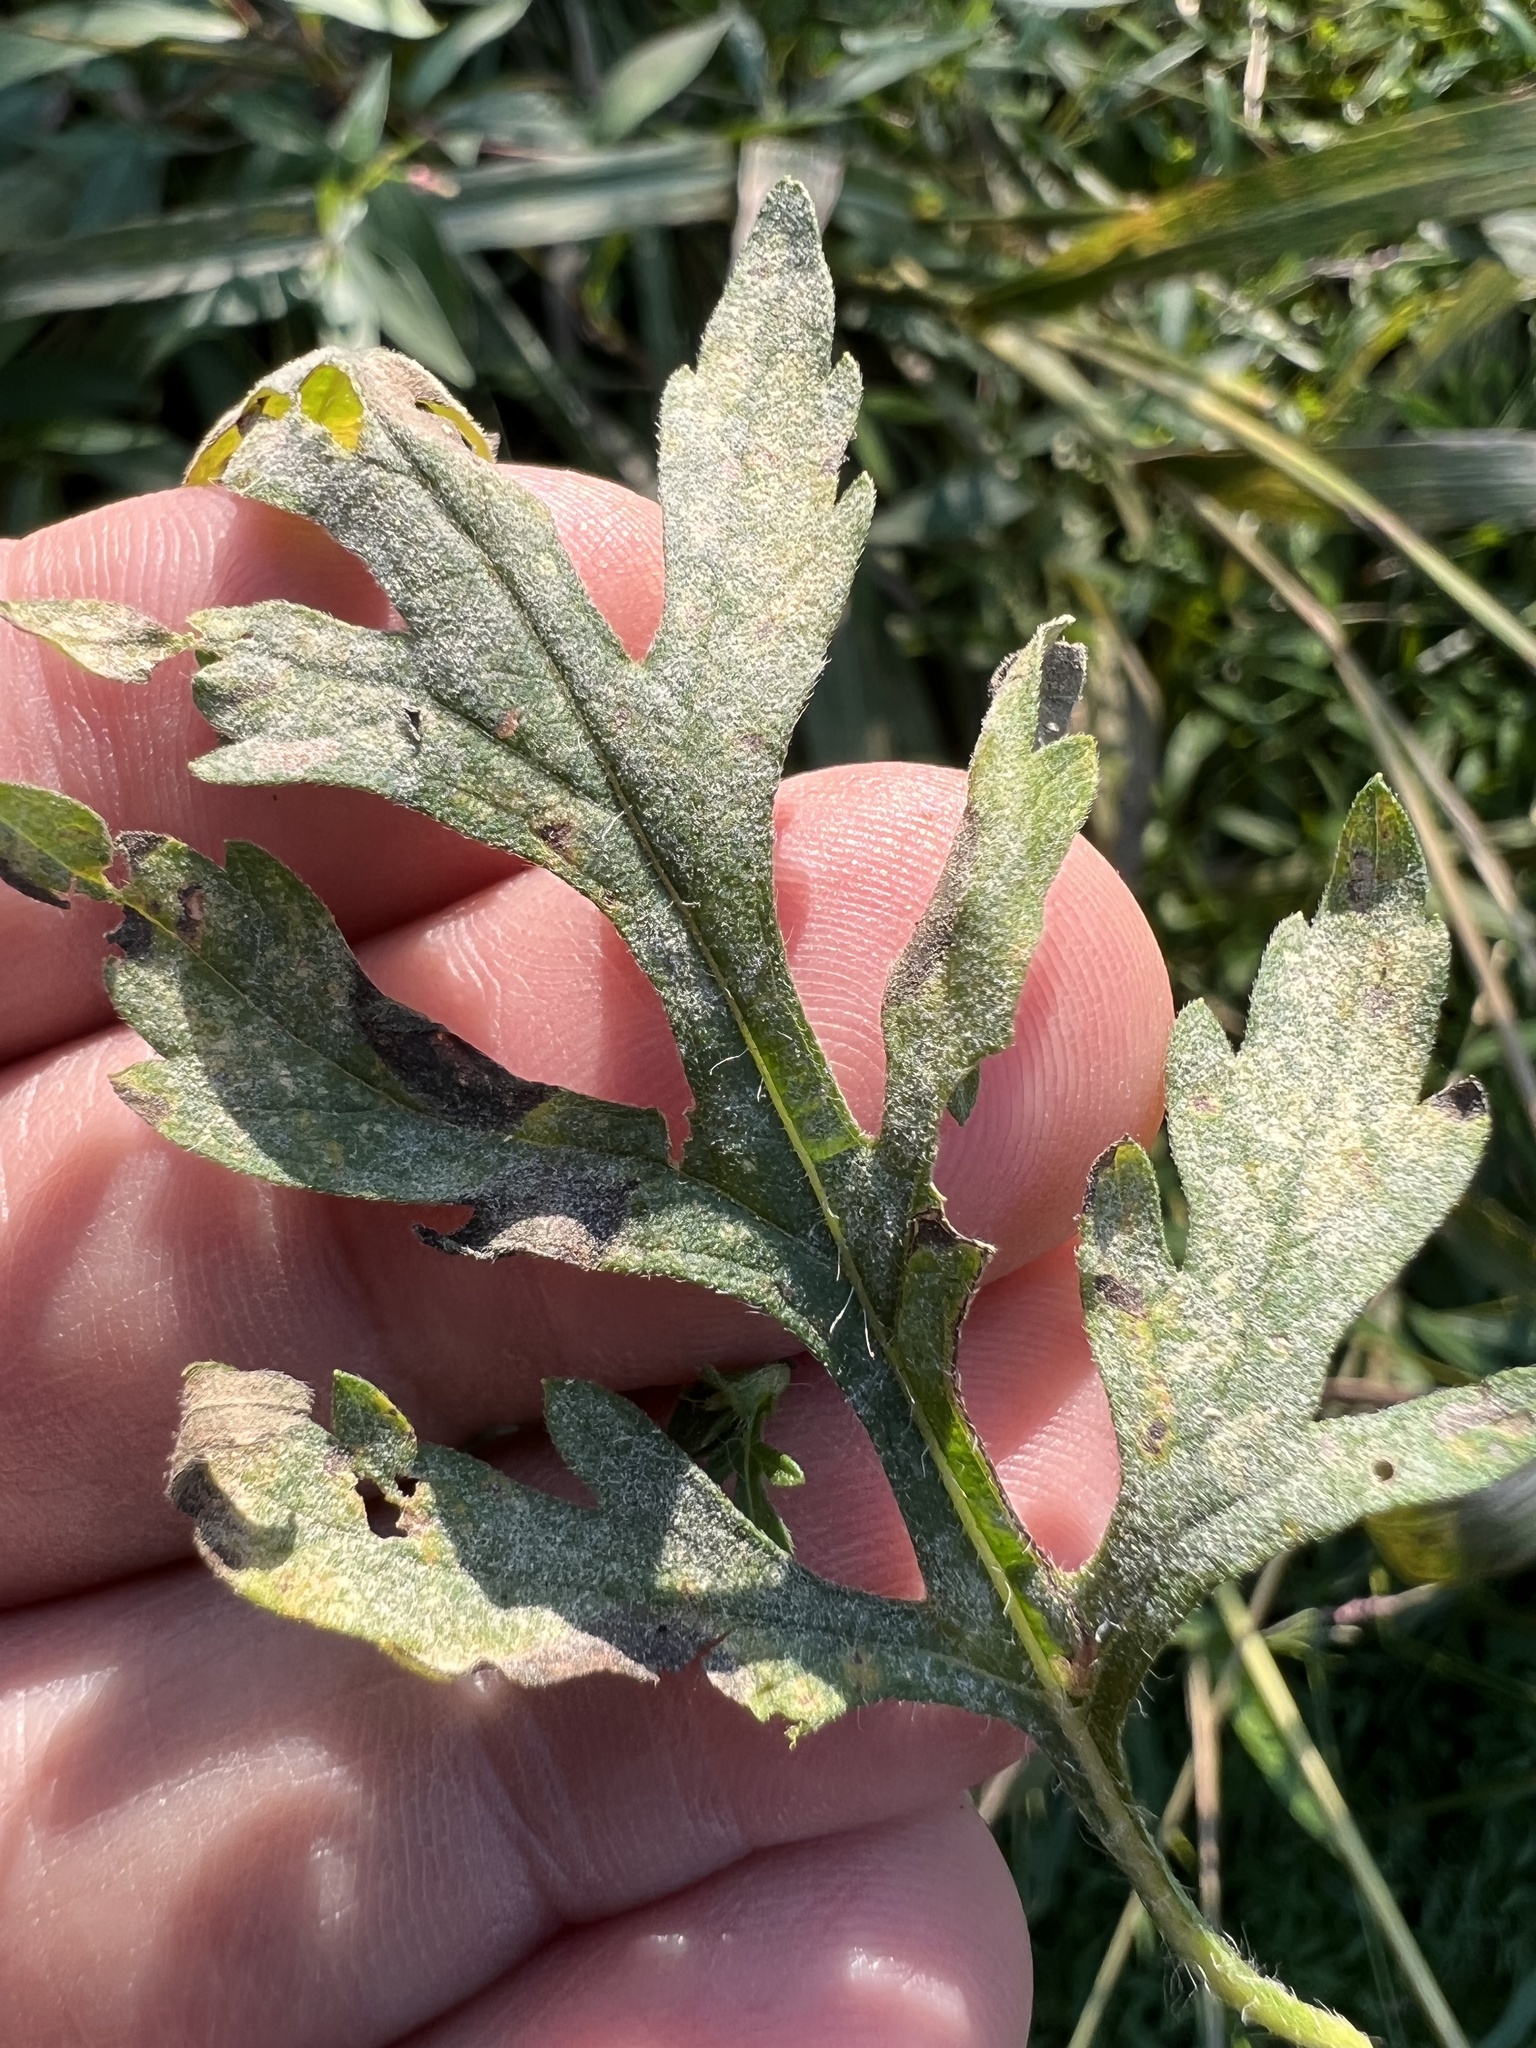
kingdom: Fungi
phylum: Ascomycota
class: Leotiomycetes
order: Helotiales
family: Erysiphaceae
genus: Golovinomyces
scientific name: Golovinomyces ambrosiae
